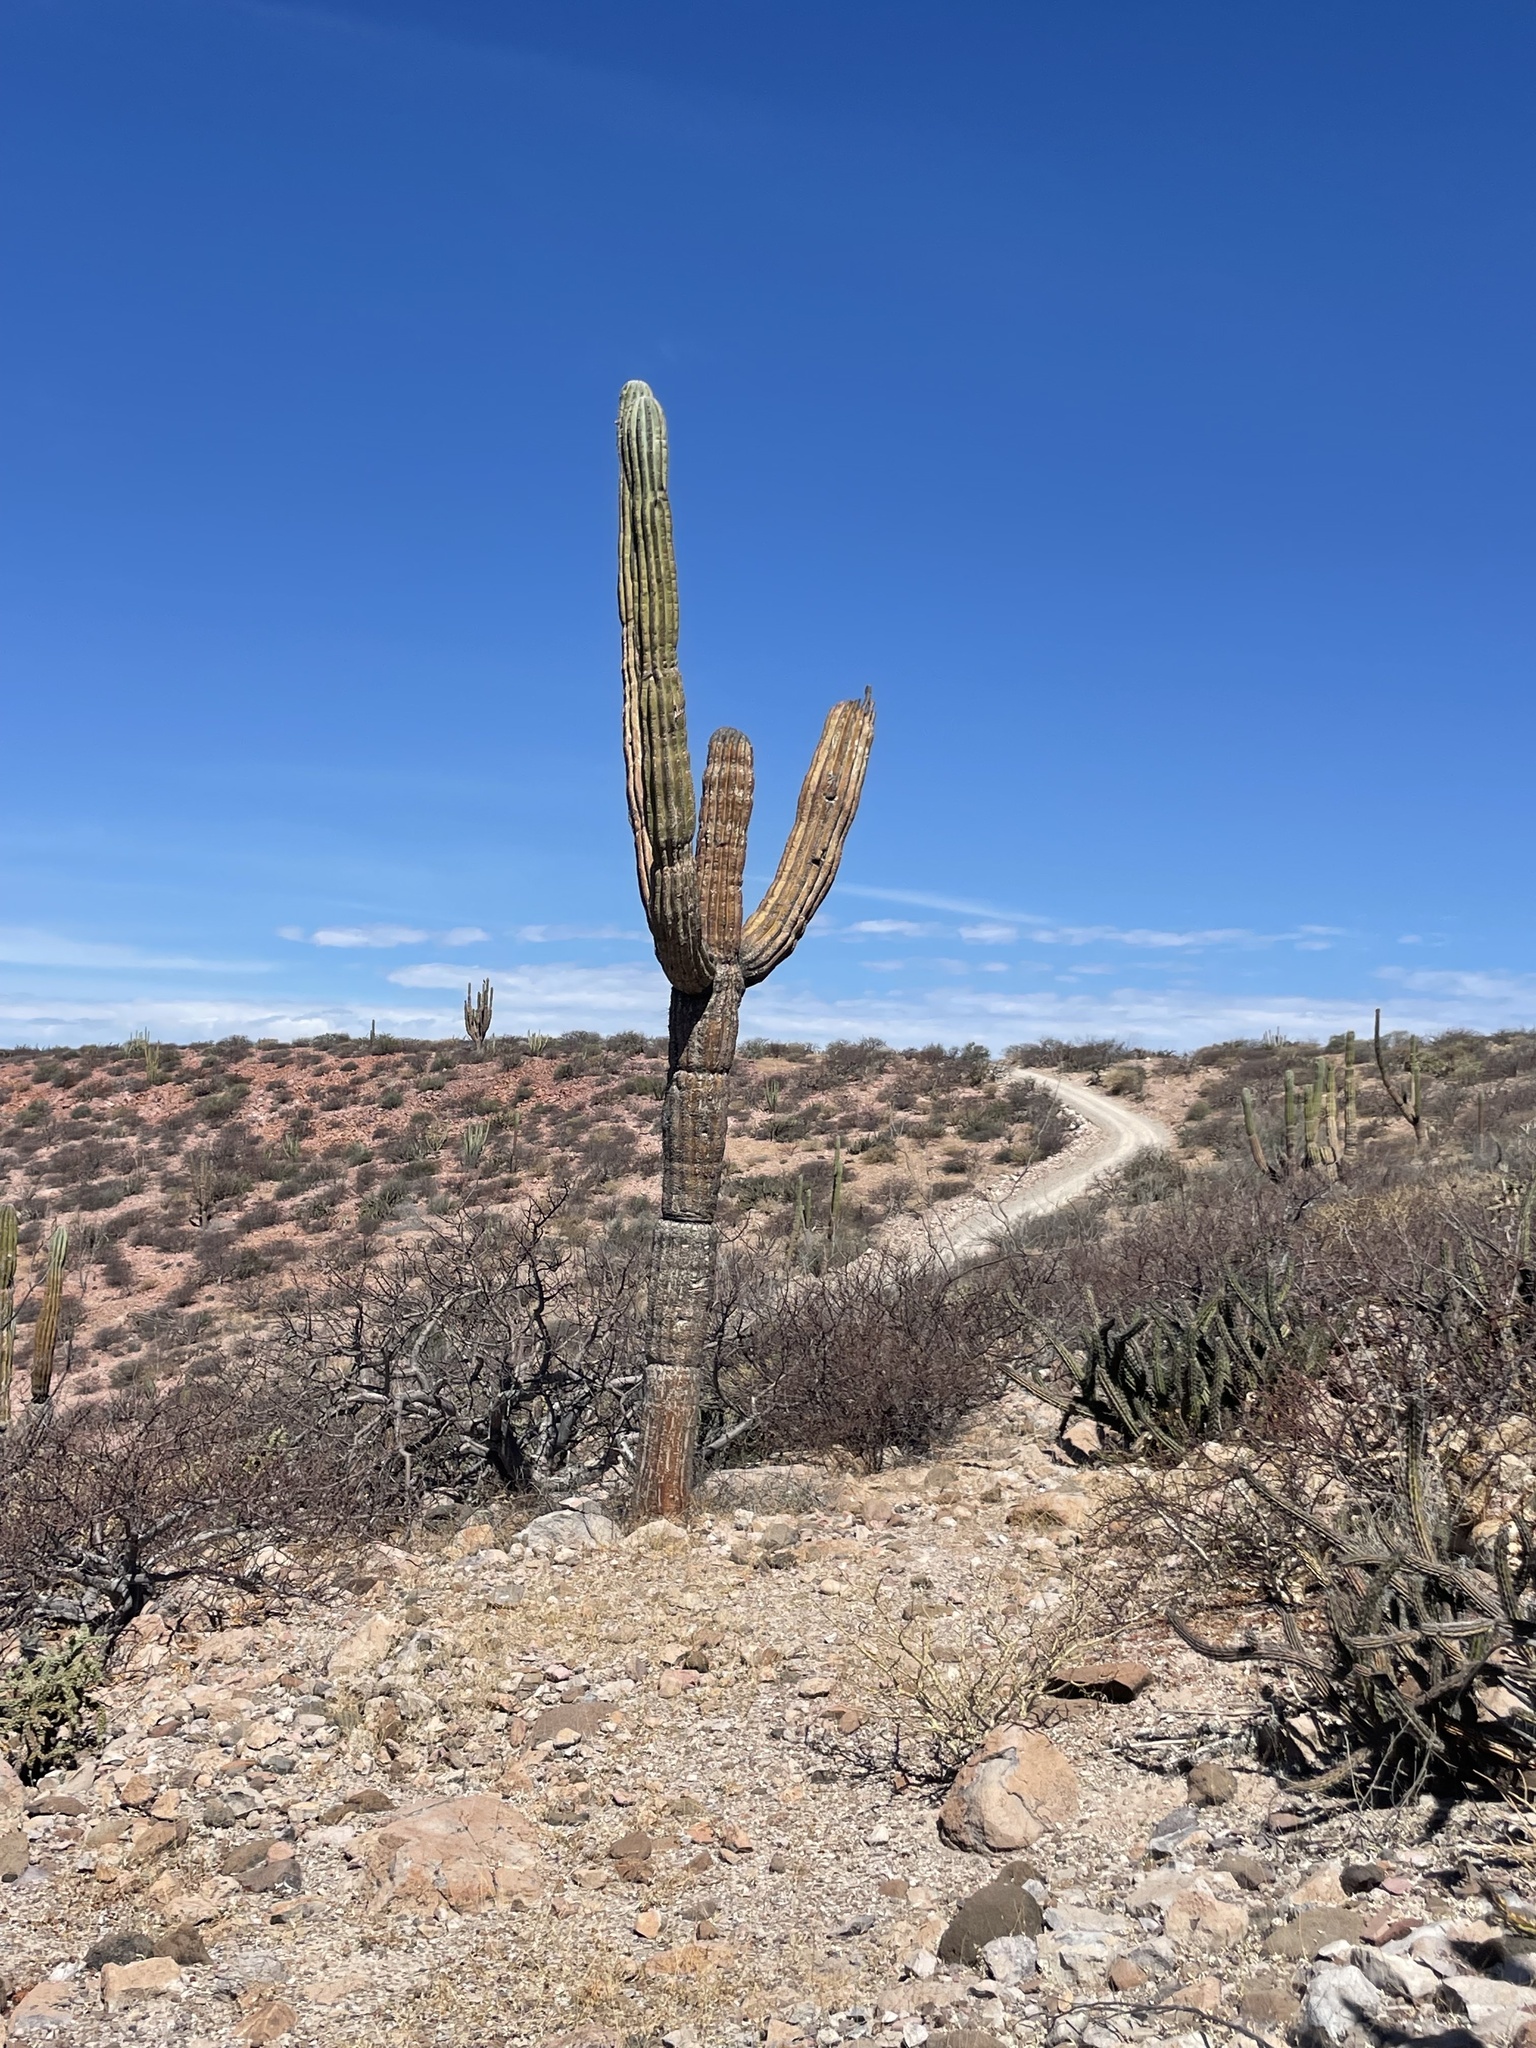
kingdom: Plantae
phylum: Tracheophyta
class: Magnoliopsida
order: Caryophyllales
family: Cactaceae
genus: Pachycereus
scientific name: Pachycereus pringlei
